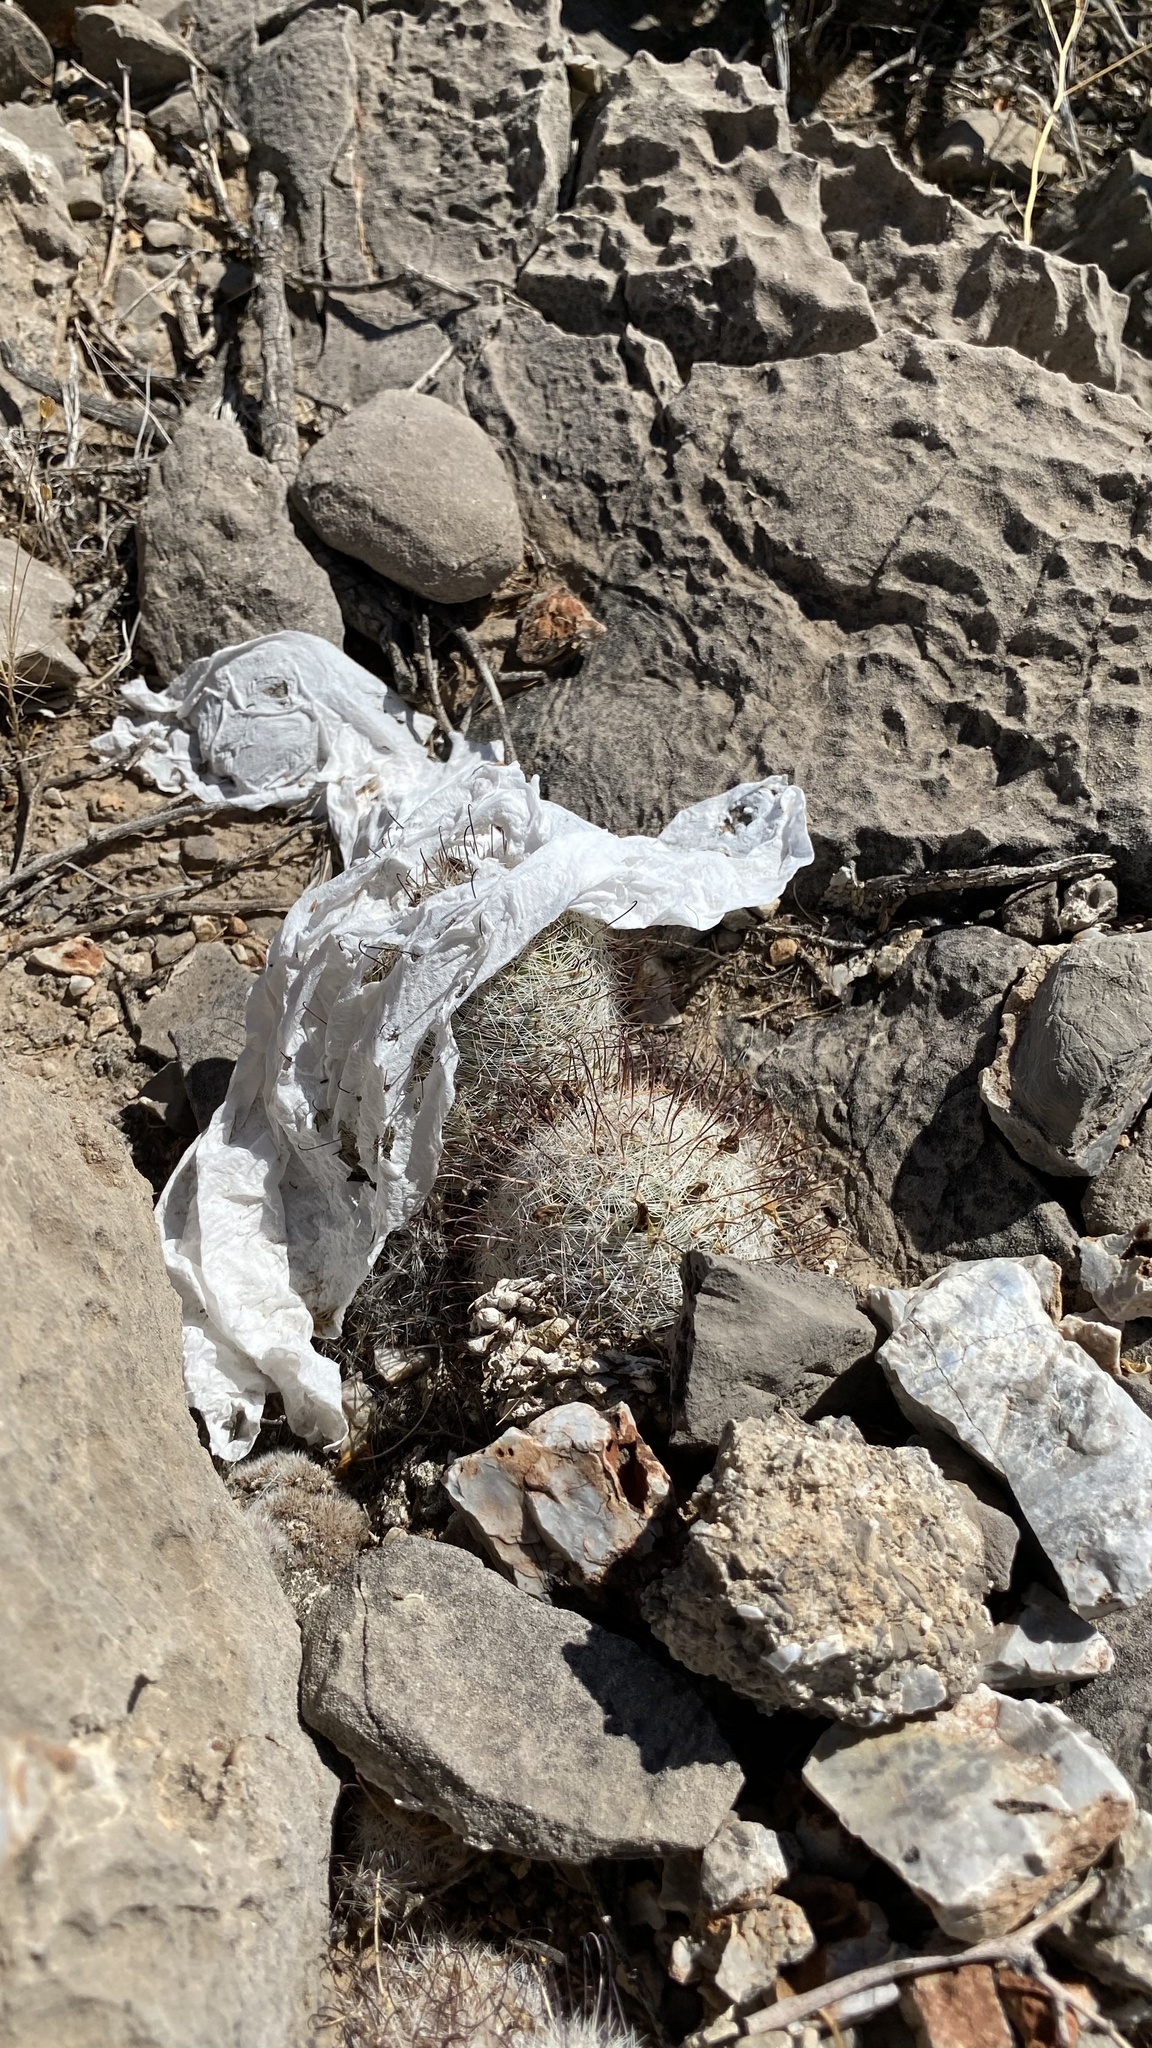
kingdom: Plantae
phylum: Tracheophyta
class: Magnoliopsida
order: Caryophyllales
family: Cactaceae
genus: Cochemiea
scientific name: Cochemiea grahamii
